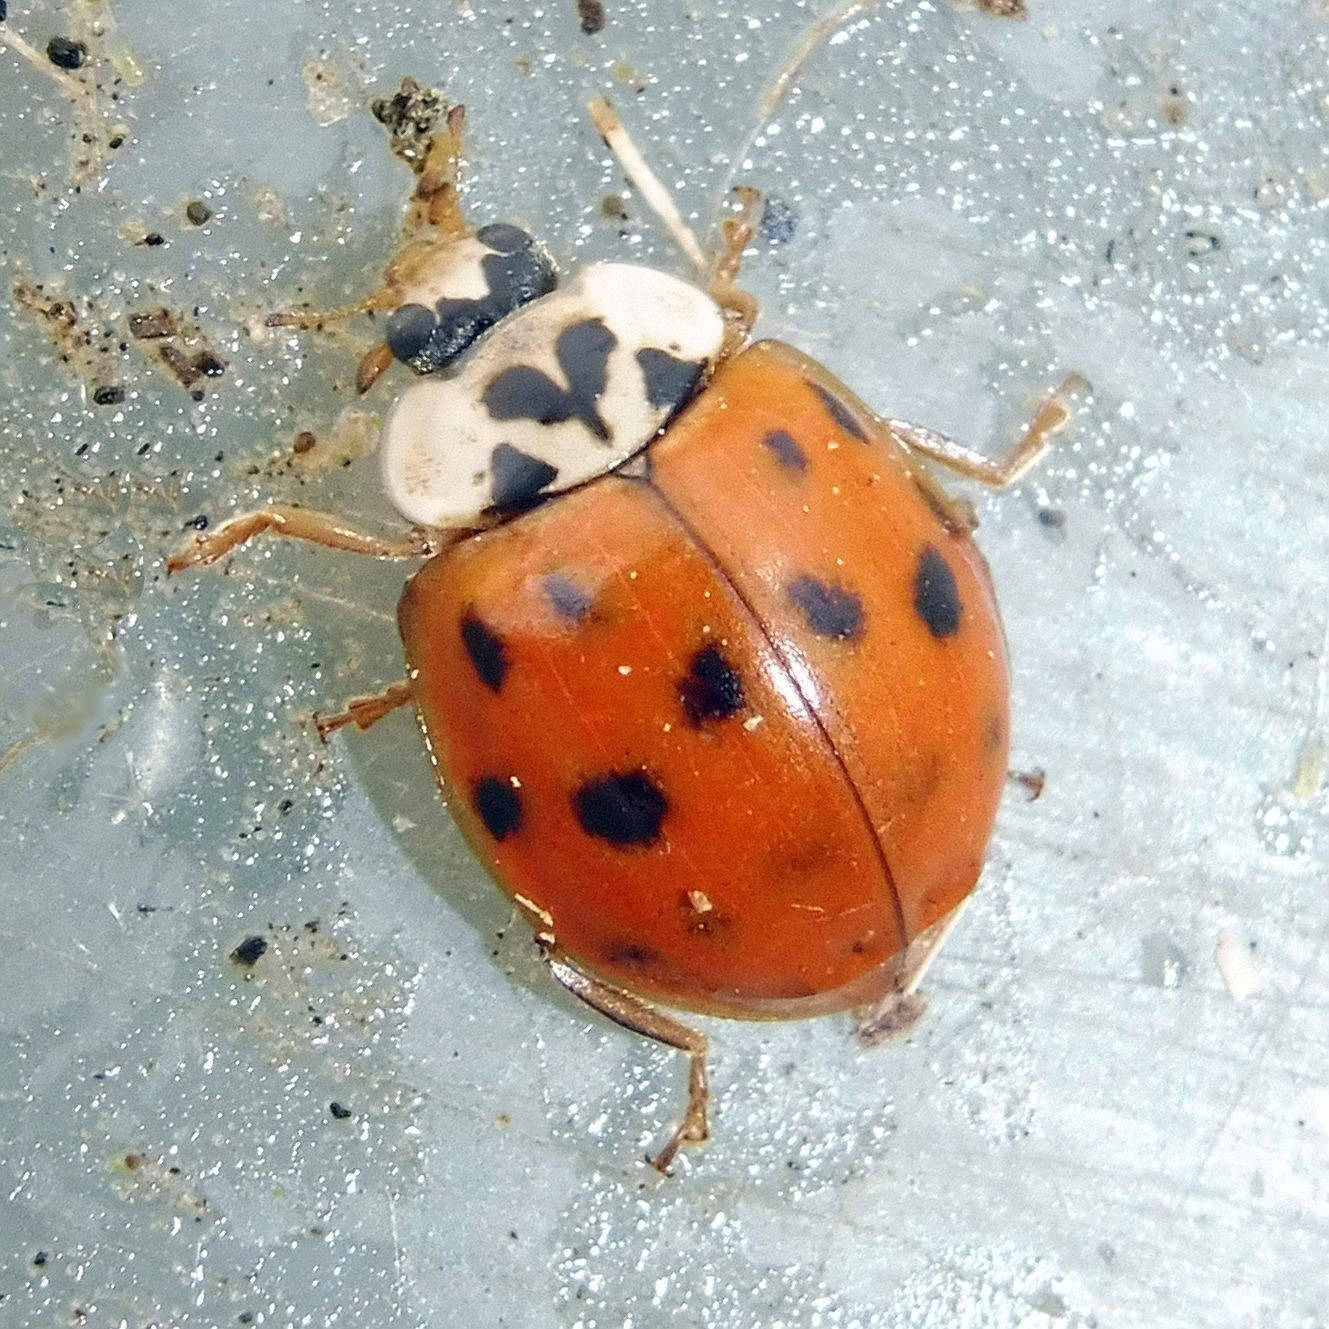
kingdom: Animalia
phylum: Arthropoda
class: Insecta
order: Coleoptera
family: Coccinellidae
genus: Harmonia
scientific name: Harmonia axyridis
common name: Harlequin ladybird
